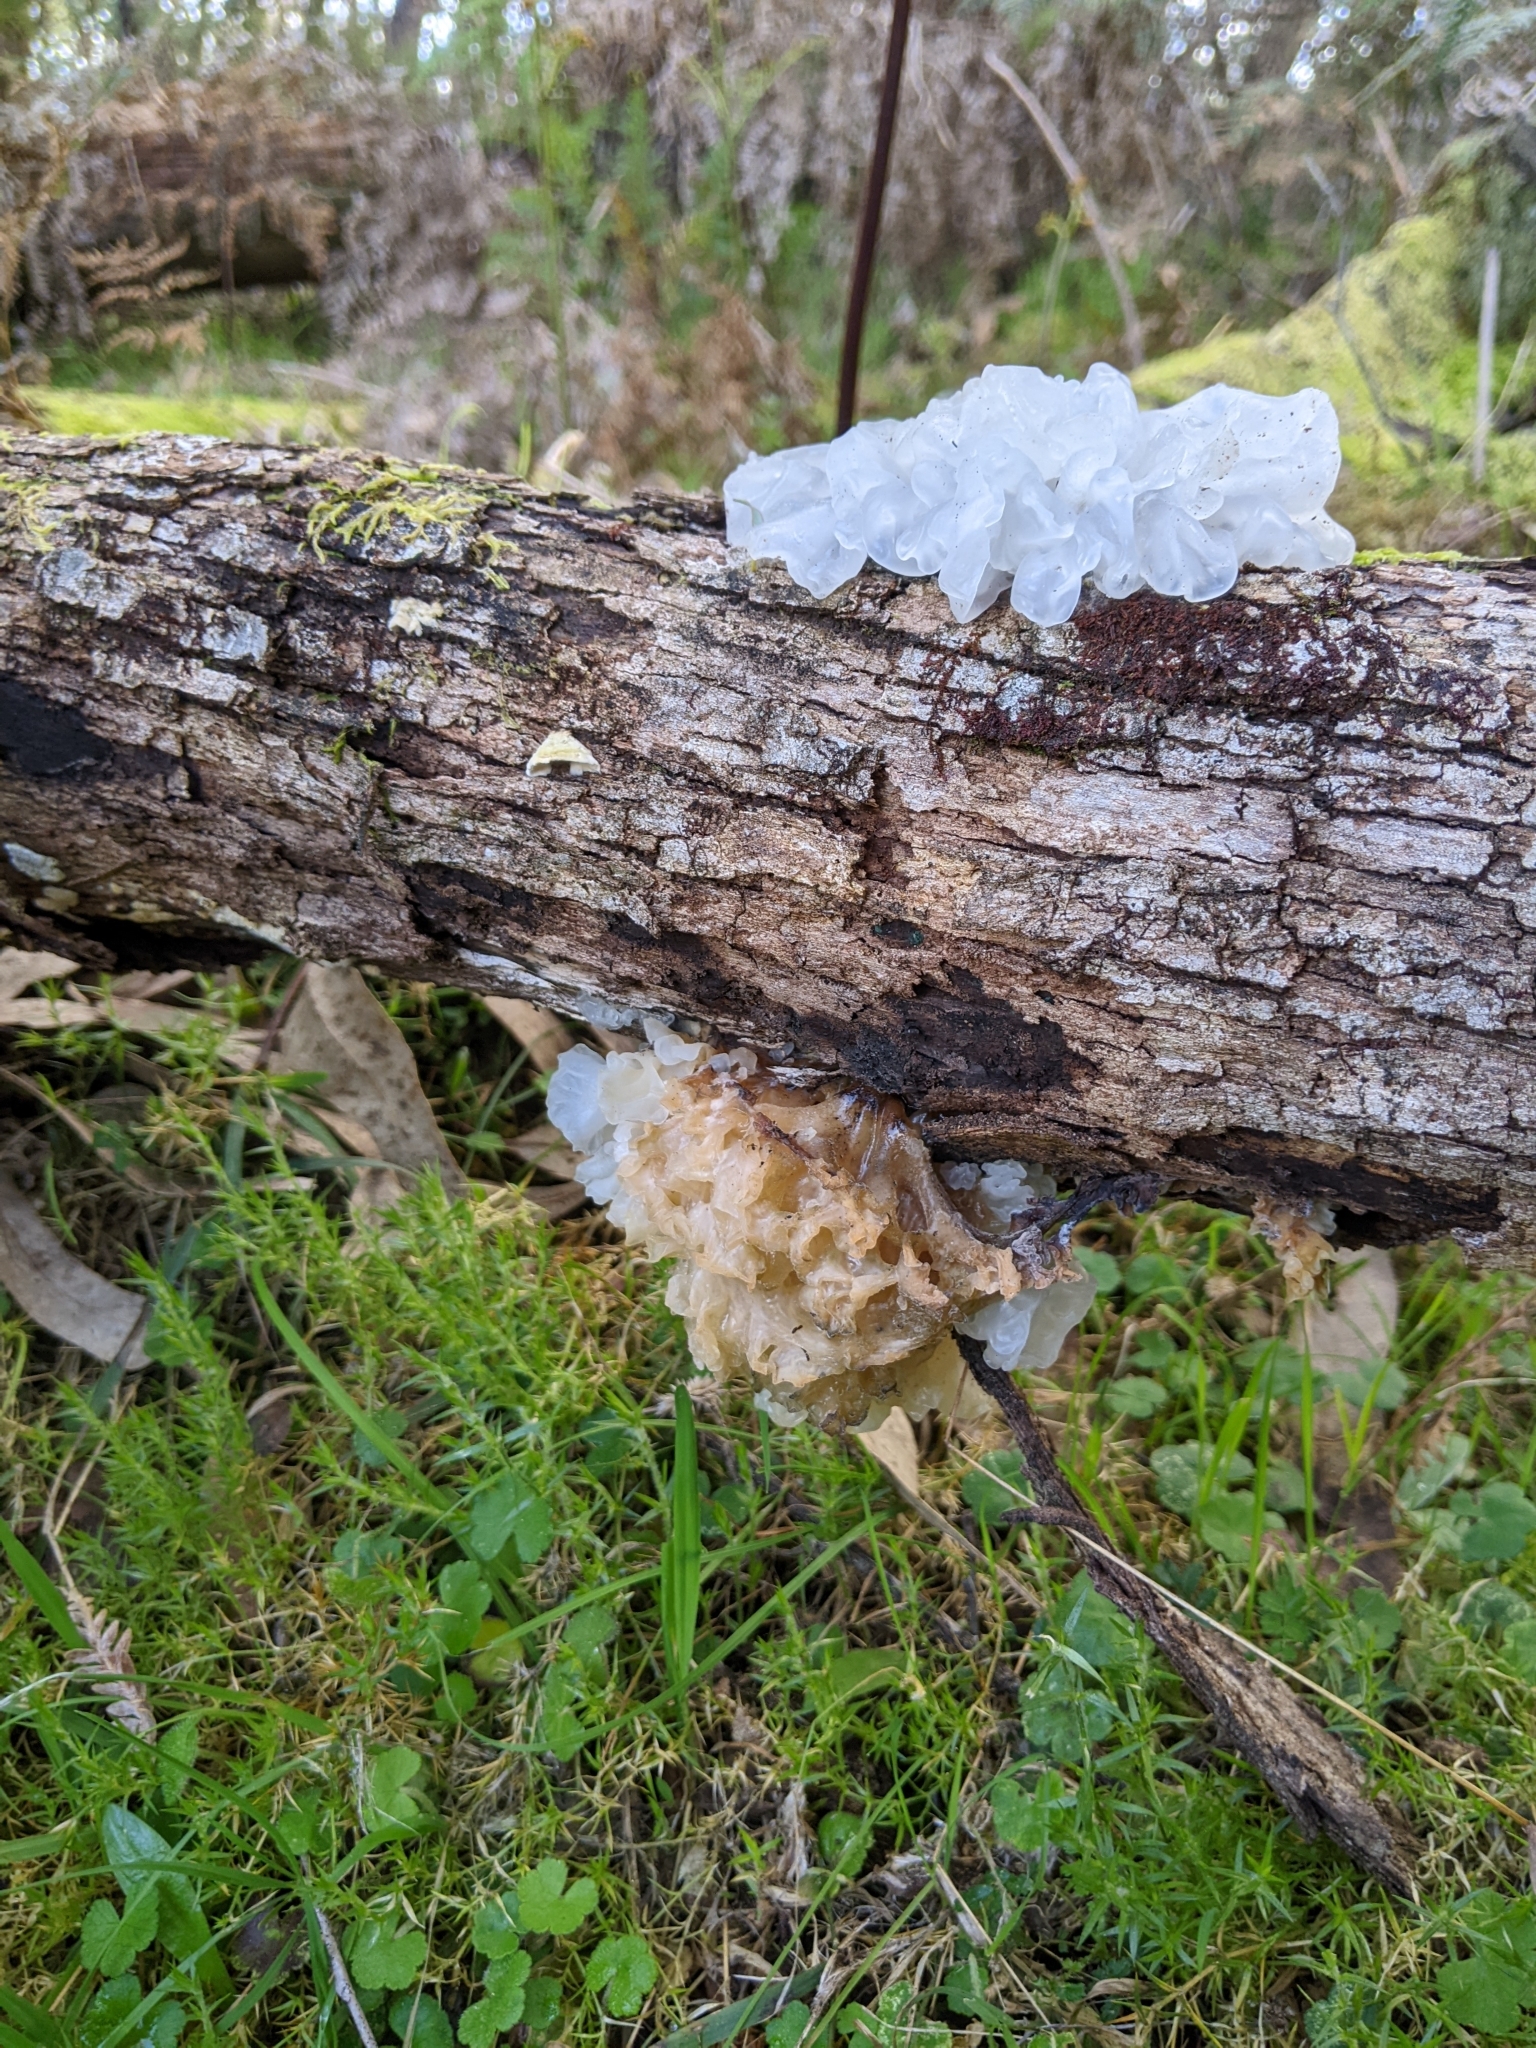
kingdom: Fungi
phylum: Basidiomycota
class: Tremellomycetes
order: Tremellales
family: Tremellaceae
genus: Tremella
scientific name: Tremella fuciformis
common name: Snow fungus
